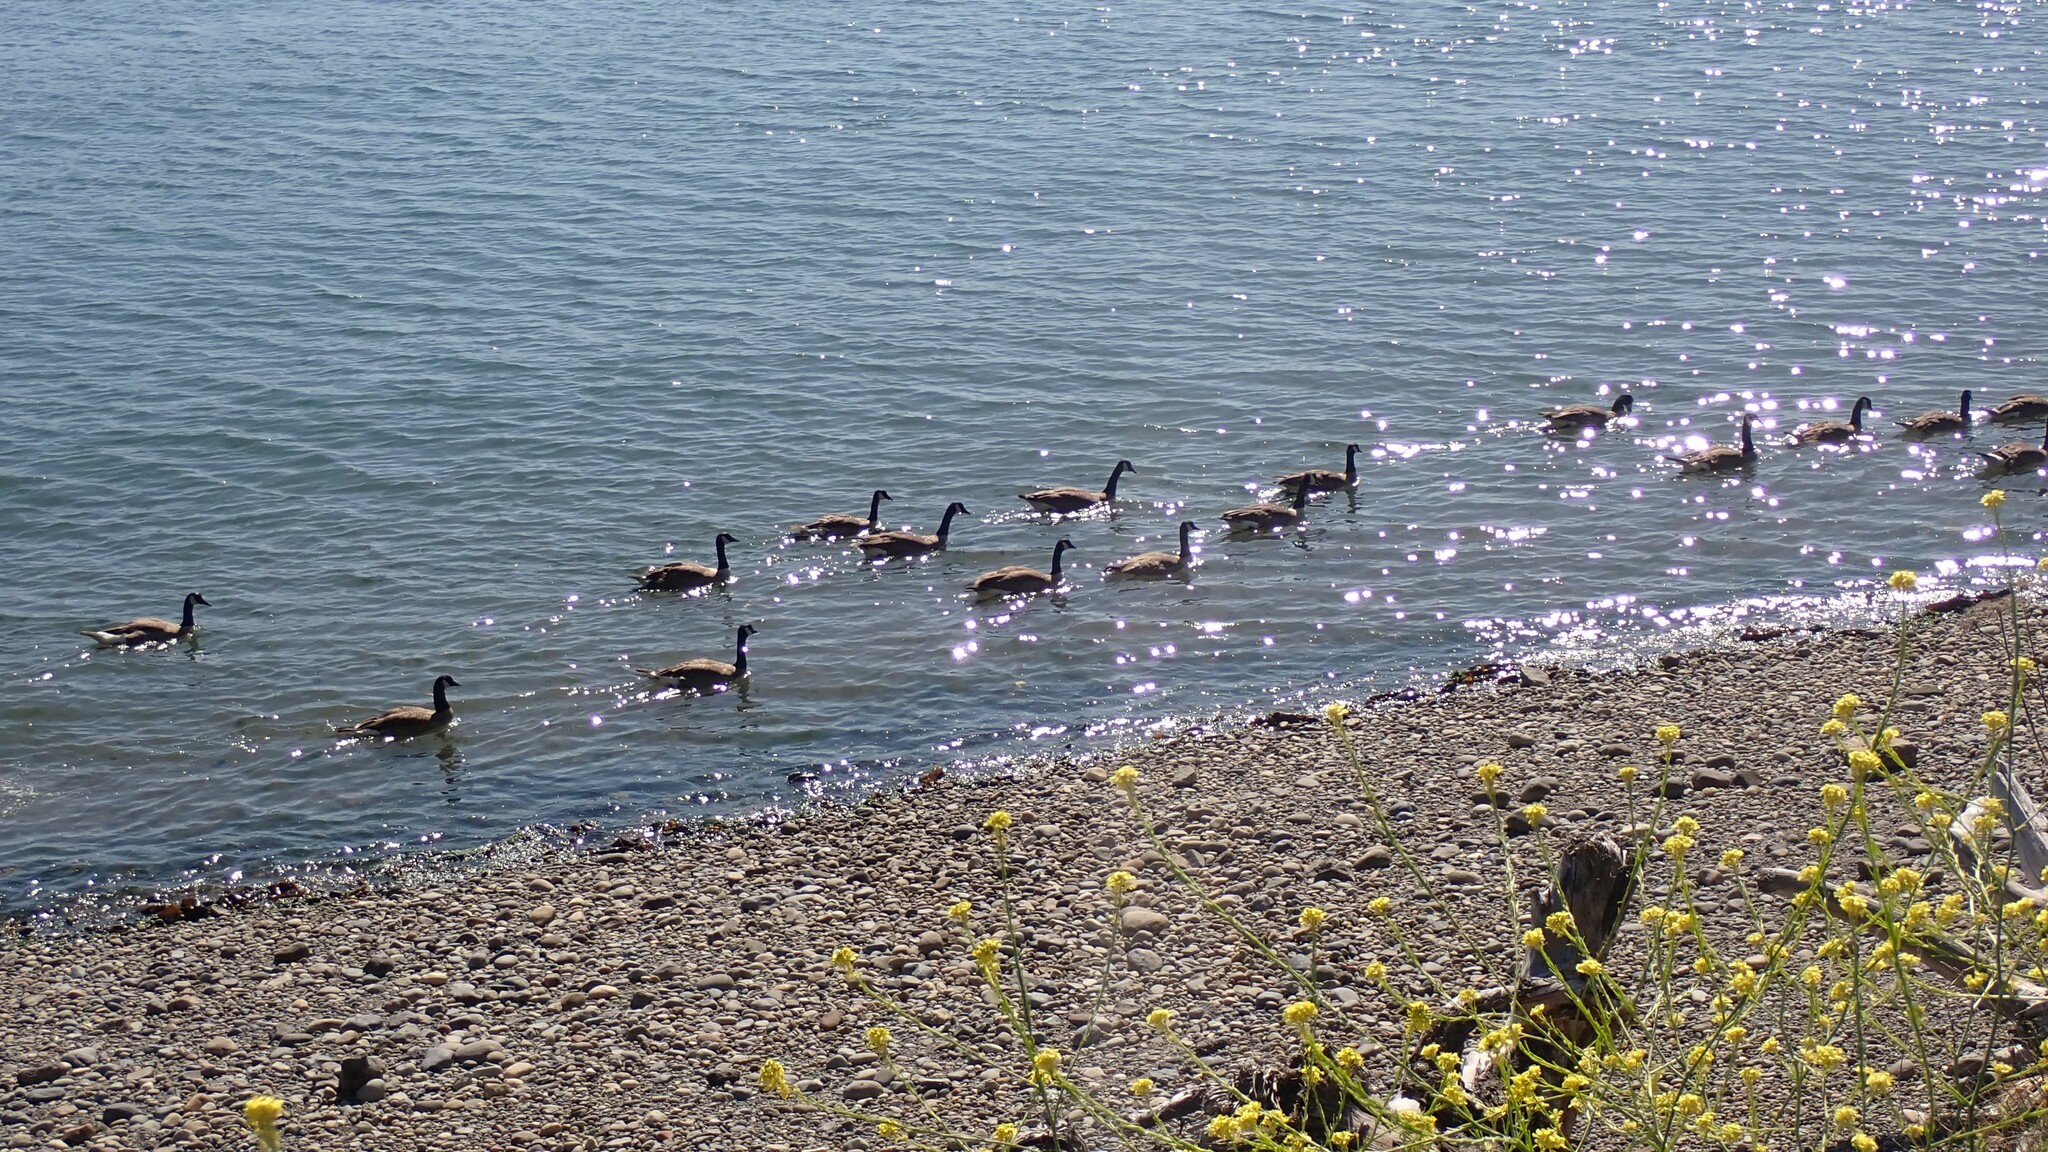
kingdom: Animalia
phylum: Chordata
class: Aves
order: Anseriformes
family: Anatidae
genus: Branta
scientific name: Branta canadensis
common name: Canada goose
